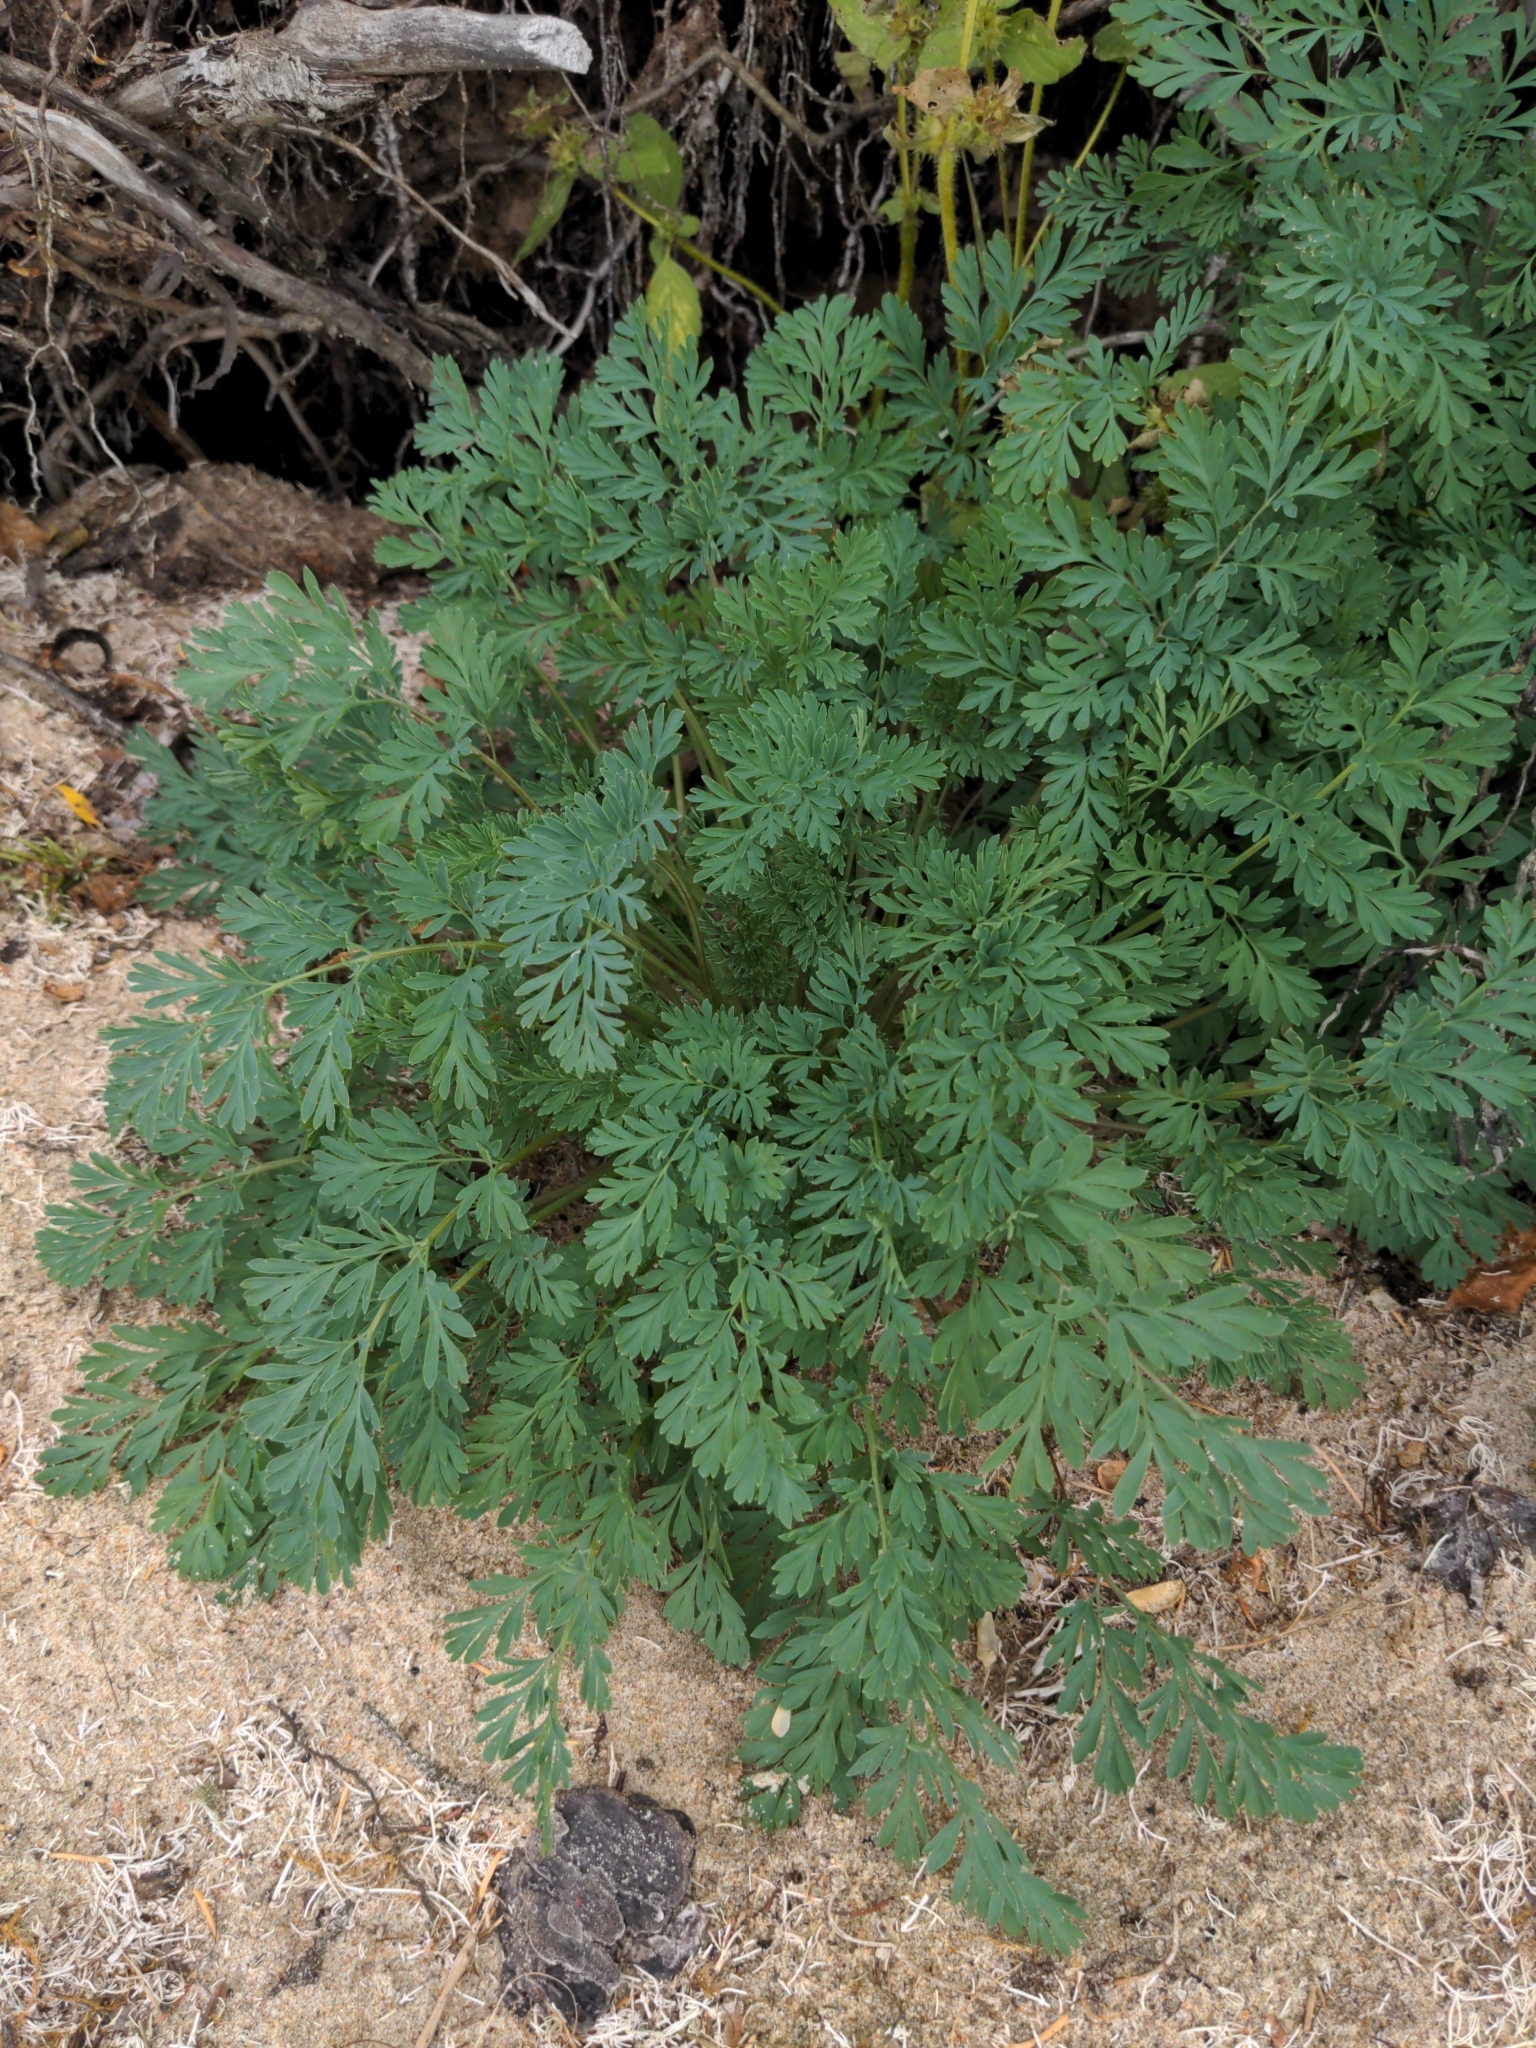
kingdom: Plantae
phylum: Tracheophyta
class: Magnoliopsida
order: Ranunculales
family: Papaveraceae
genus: Corydalis
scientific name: Corydalis aurea
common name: Golden corydalis
